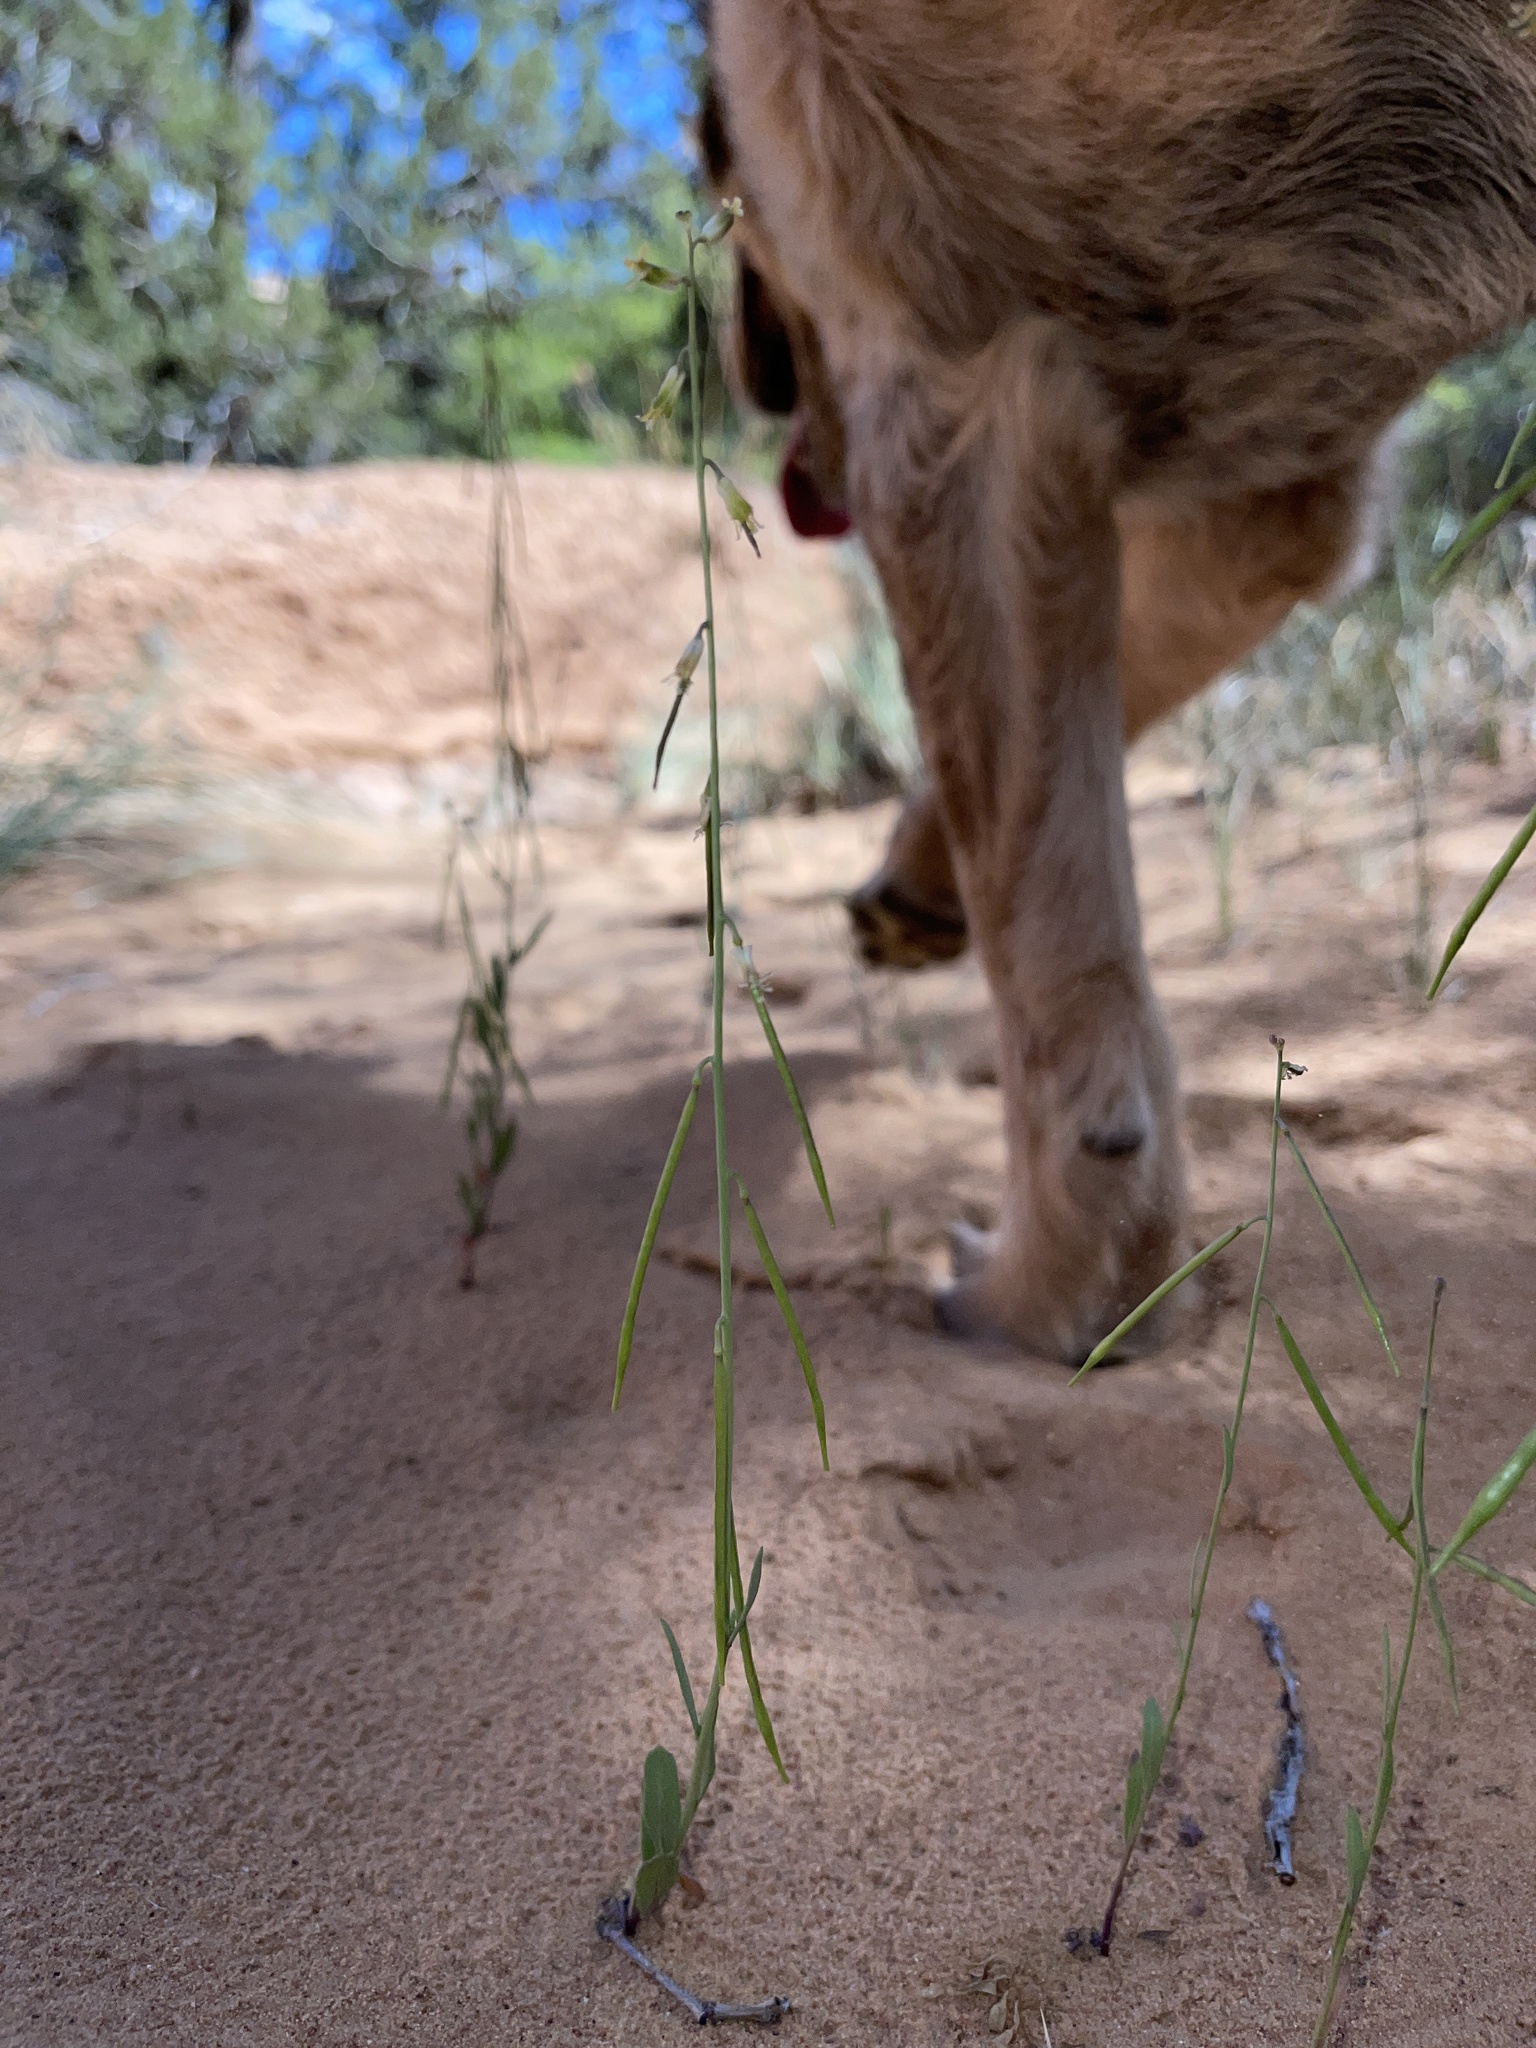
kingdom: Plantae
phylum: Tracheophyta
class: Magnoliopsida
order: Brassicales
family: Brassicaceae
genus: Streptanthus
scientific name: Streptanthus longirostris
